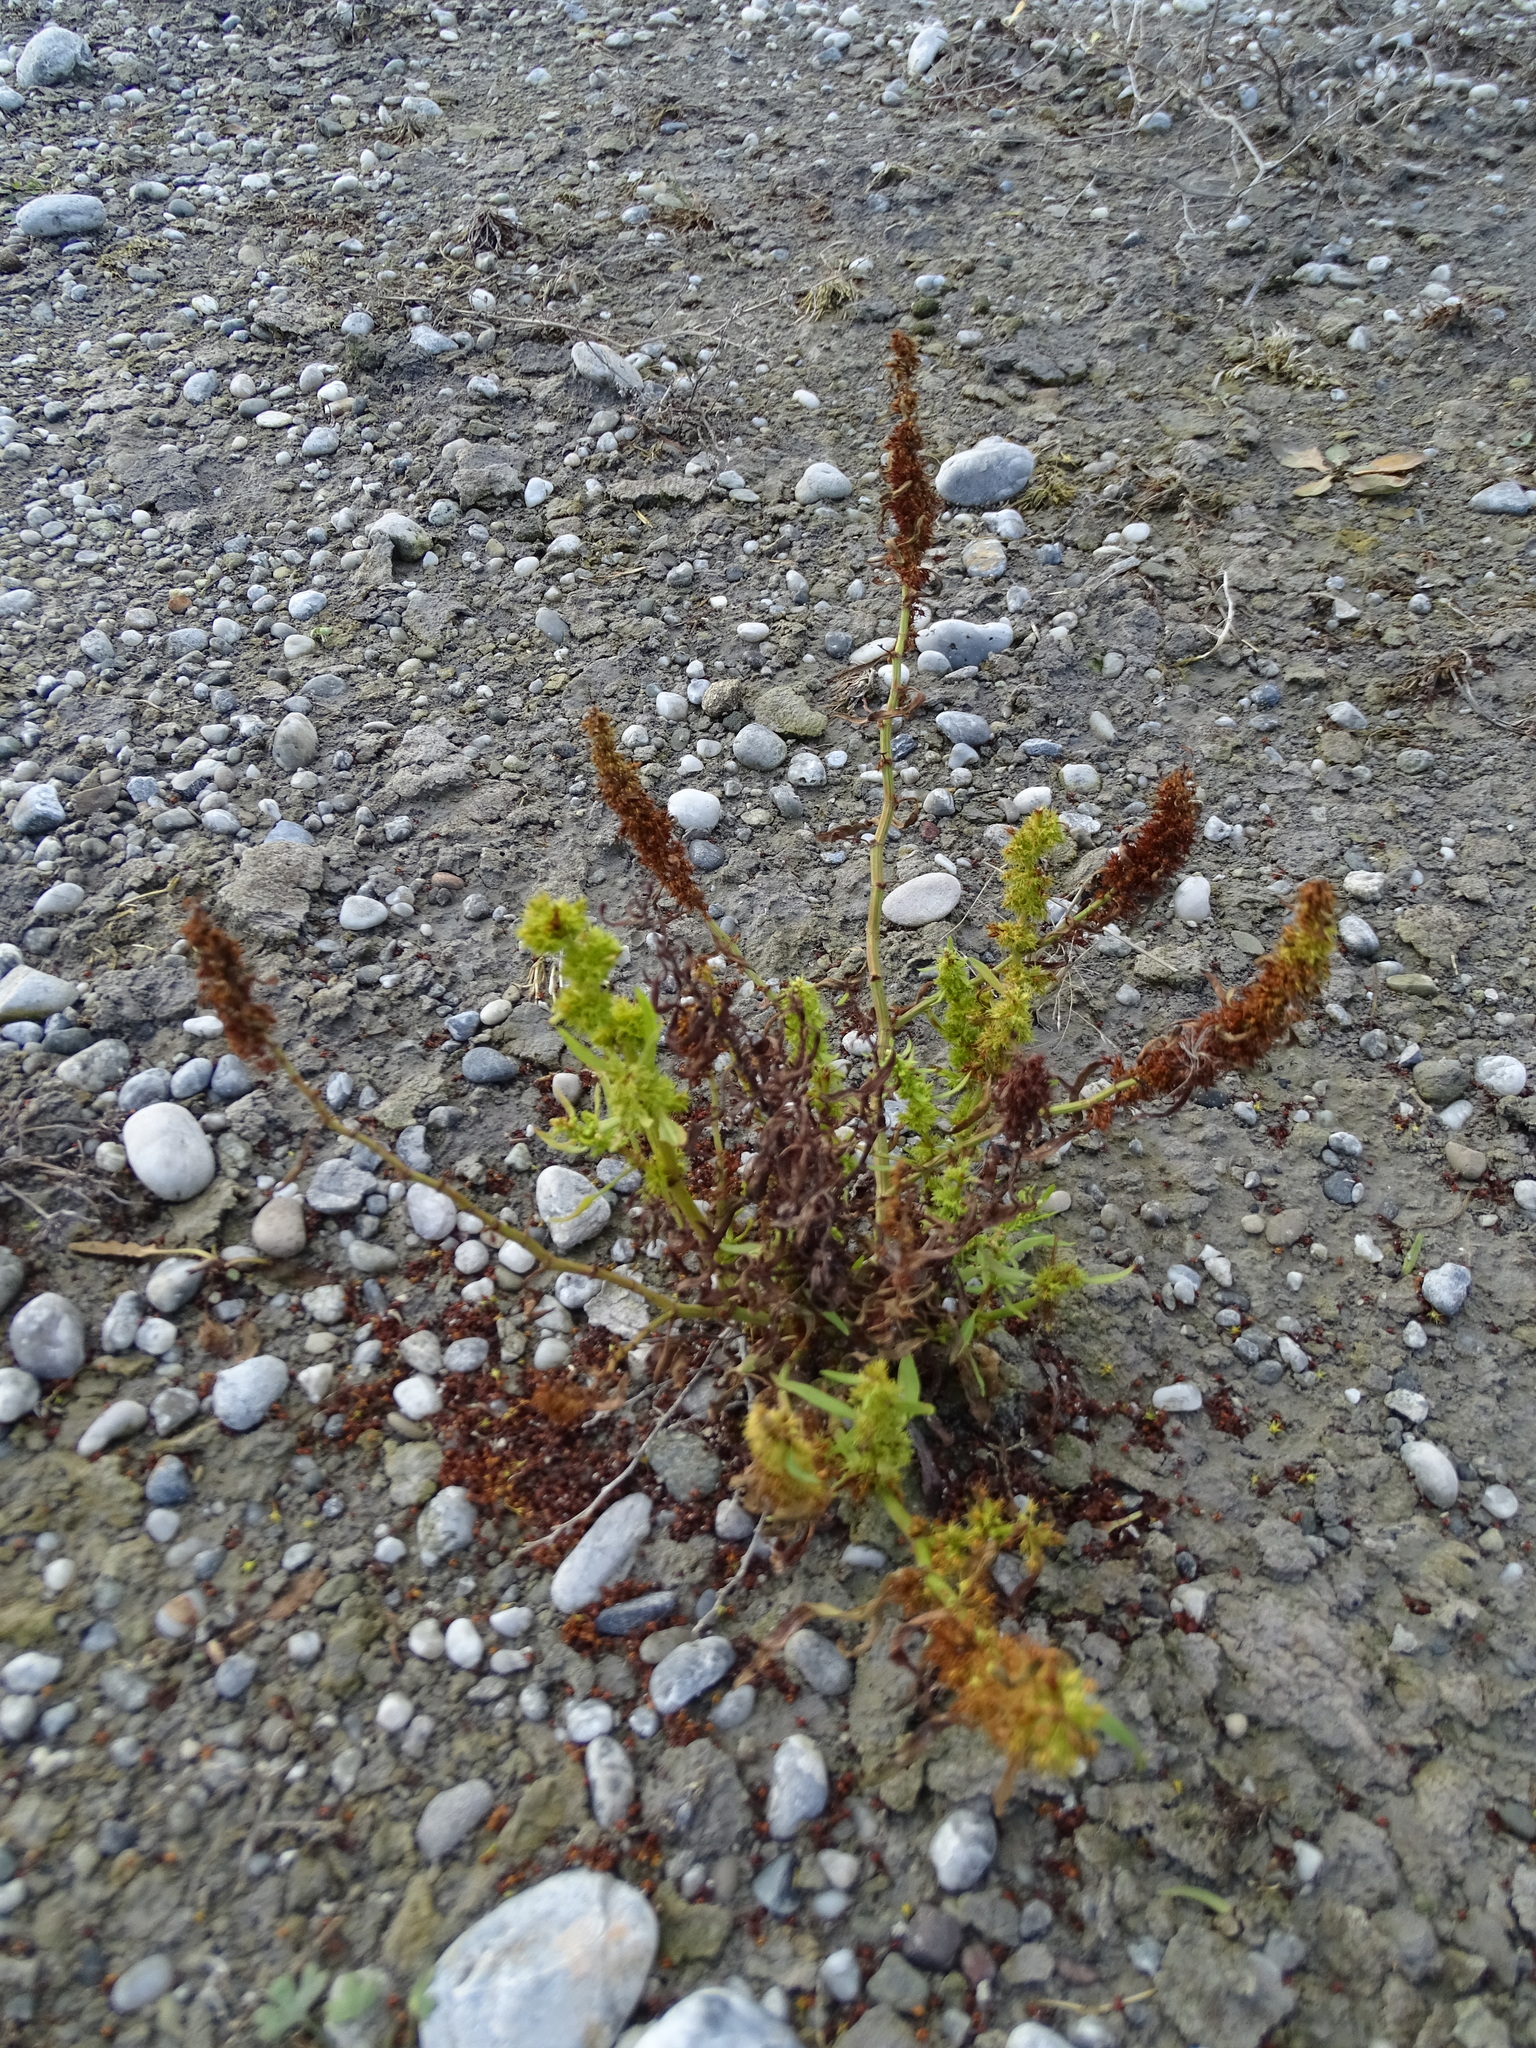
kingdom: Plantae
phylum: Tracheophyta
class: Magnoliopsida
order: Caryophyllales
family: Polygonaceae
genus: Rumex
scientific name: Rumex maritimus
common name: Golden dock
